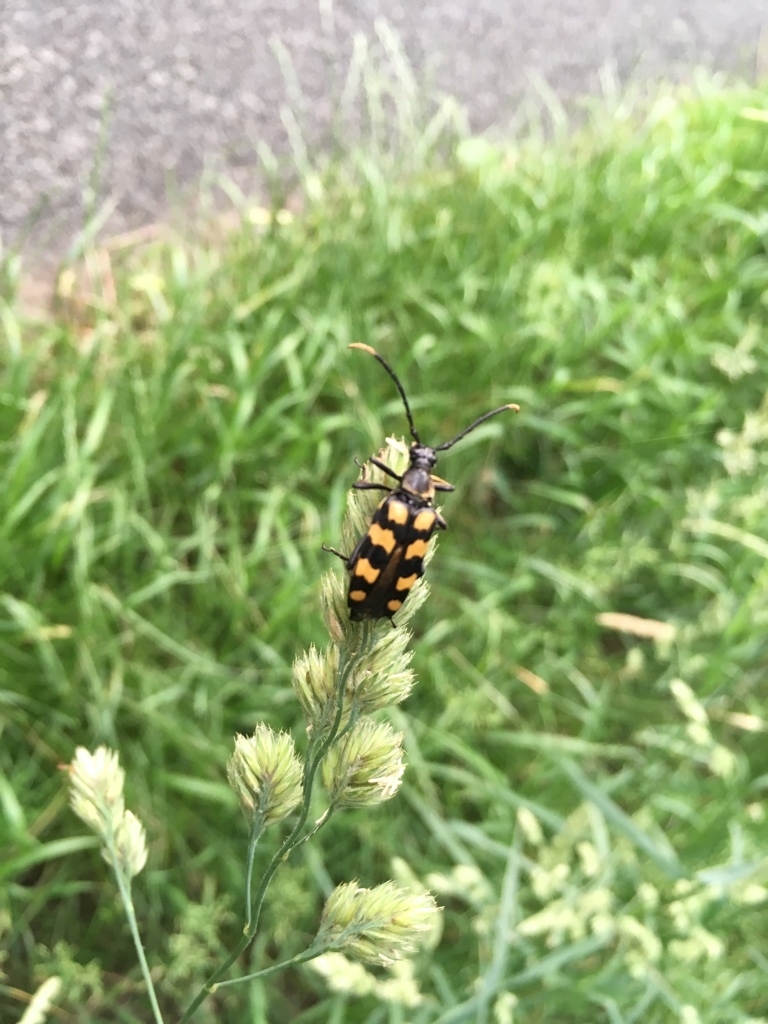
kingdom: Animalia
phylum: Arthropoda
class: Insecta
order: Coleoptera
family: Cerambycidae
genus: Leptura
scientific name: Leptura quadrifasciata
